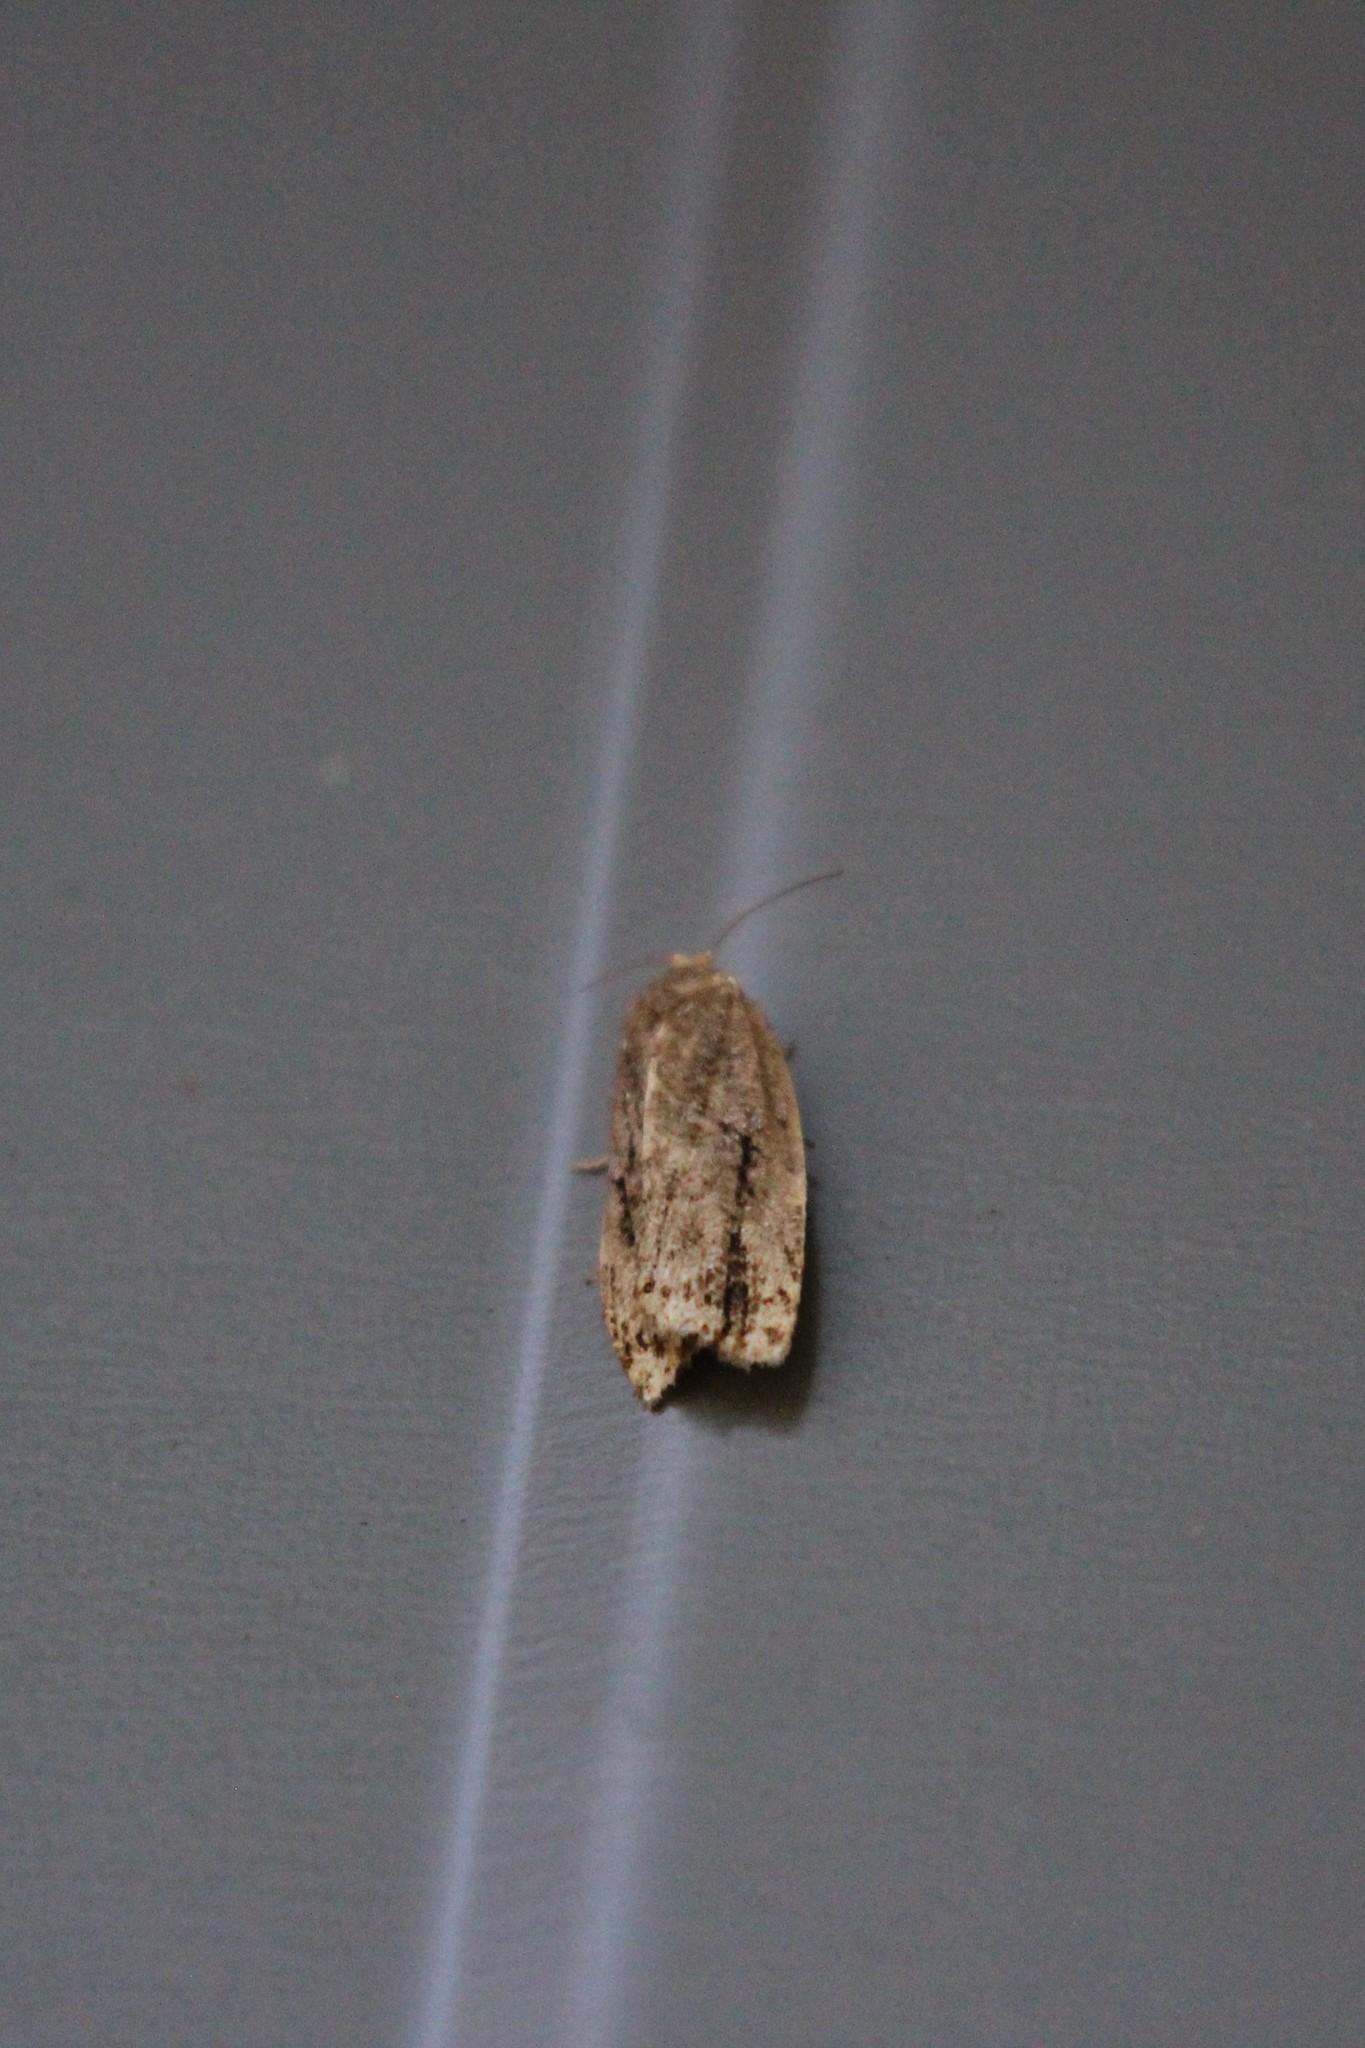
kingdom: Animalia
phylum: Arthropoda
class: Insecta
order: Lepidoptera
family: Tortricidae
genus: Choristoneura
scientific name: Choristoneura fumiferana
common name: Spruce budworm
